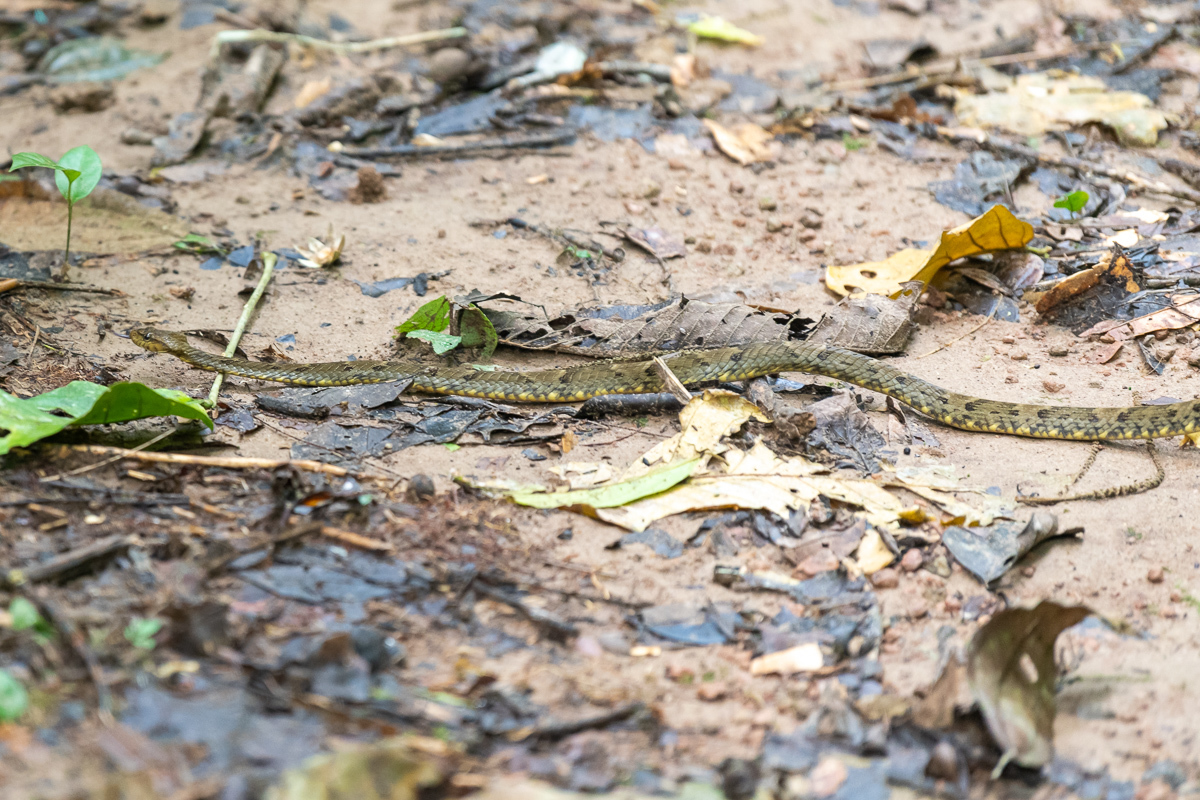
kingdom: Animalia
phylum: Chordata
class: Squamata
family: Colubridae
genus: Xenodon
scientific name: Xenodon rabdocephalus
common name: False fer-de-lance
